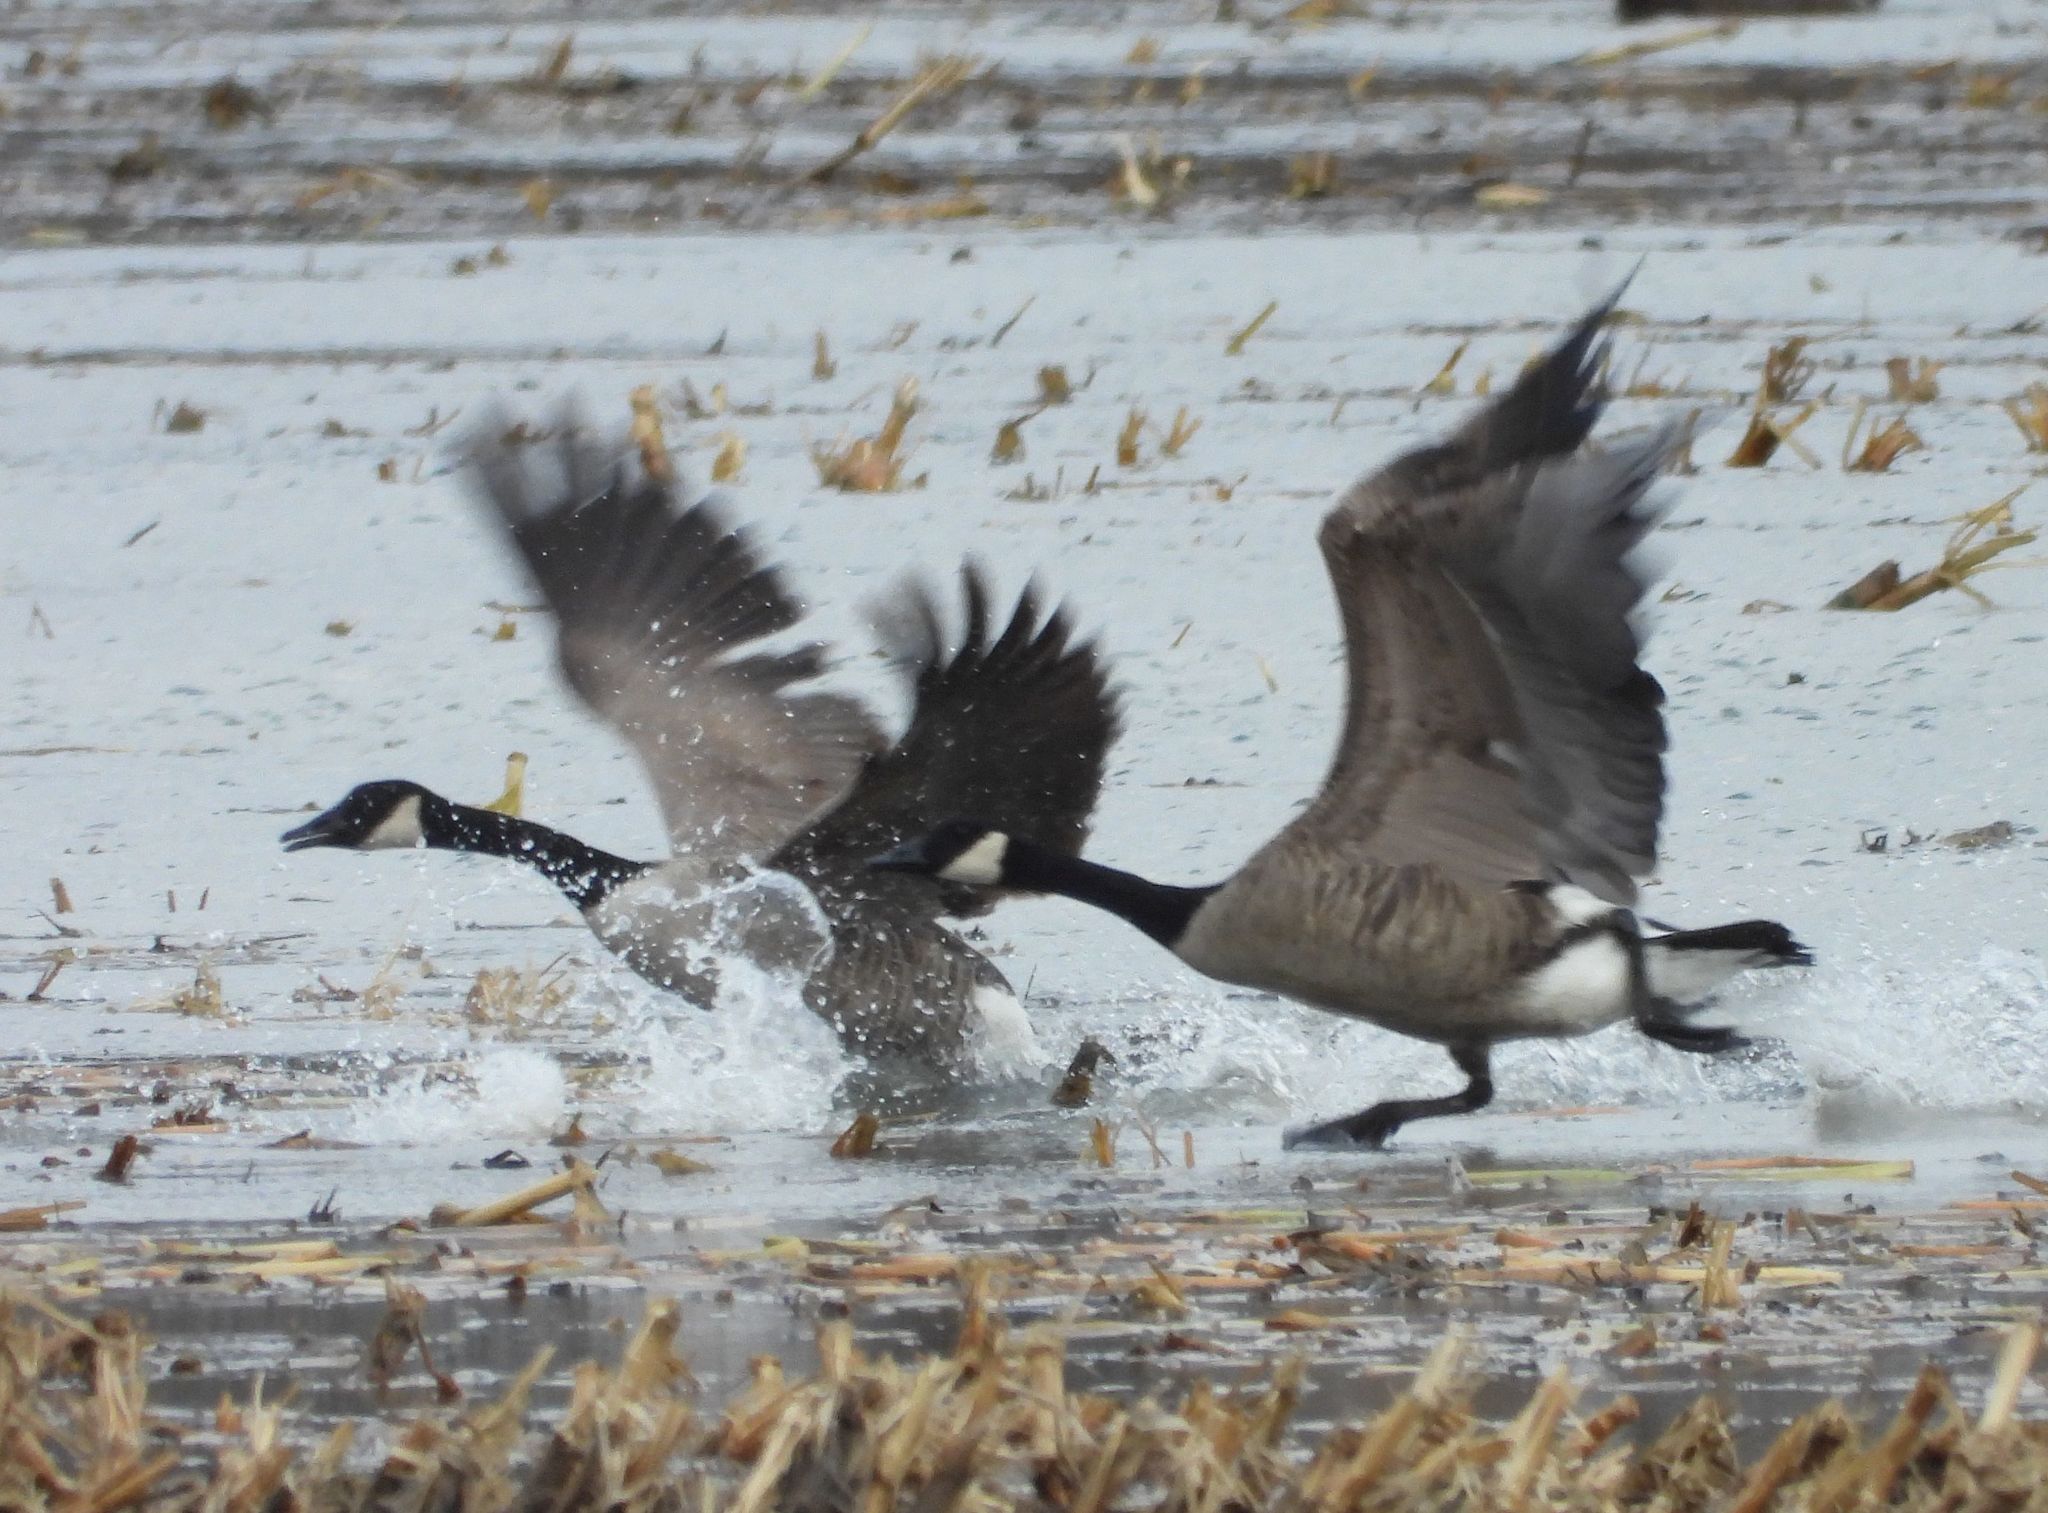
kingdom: Animalia
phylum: Chordata
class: Aves
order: Anseriformes
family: Anatidae
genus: Branta
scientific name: Branta canadensis
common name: Canada goose
